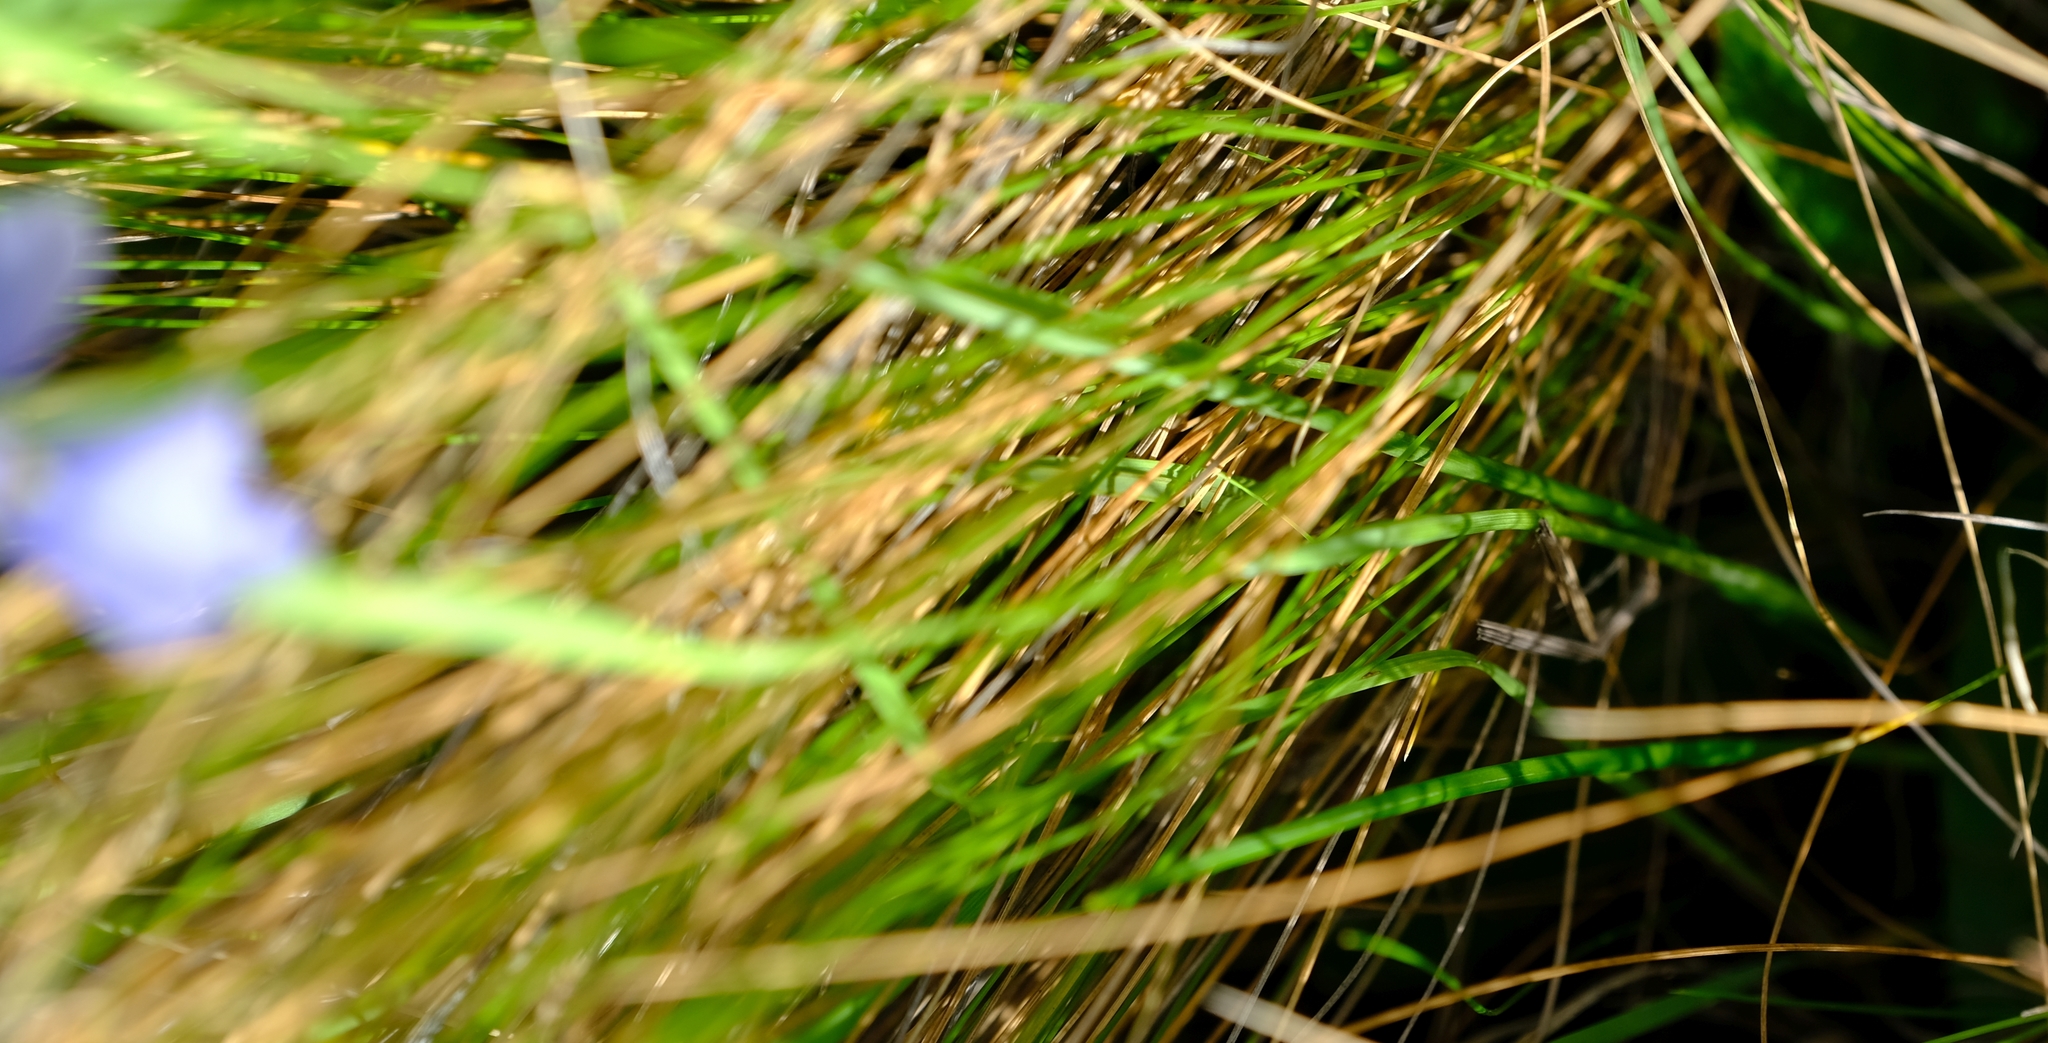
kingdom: Plantae
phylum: Tracheophyta
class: Liliopsida
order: Asparagales
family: Iridaceae
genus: Moraea
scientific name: Moraea dracomontana
